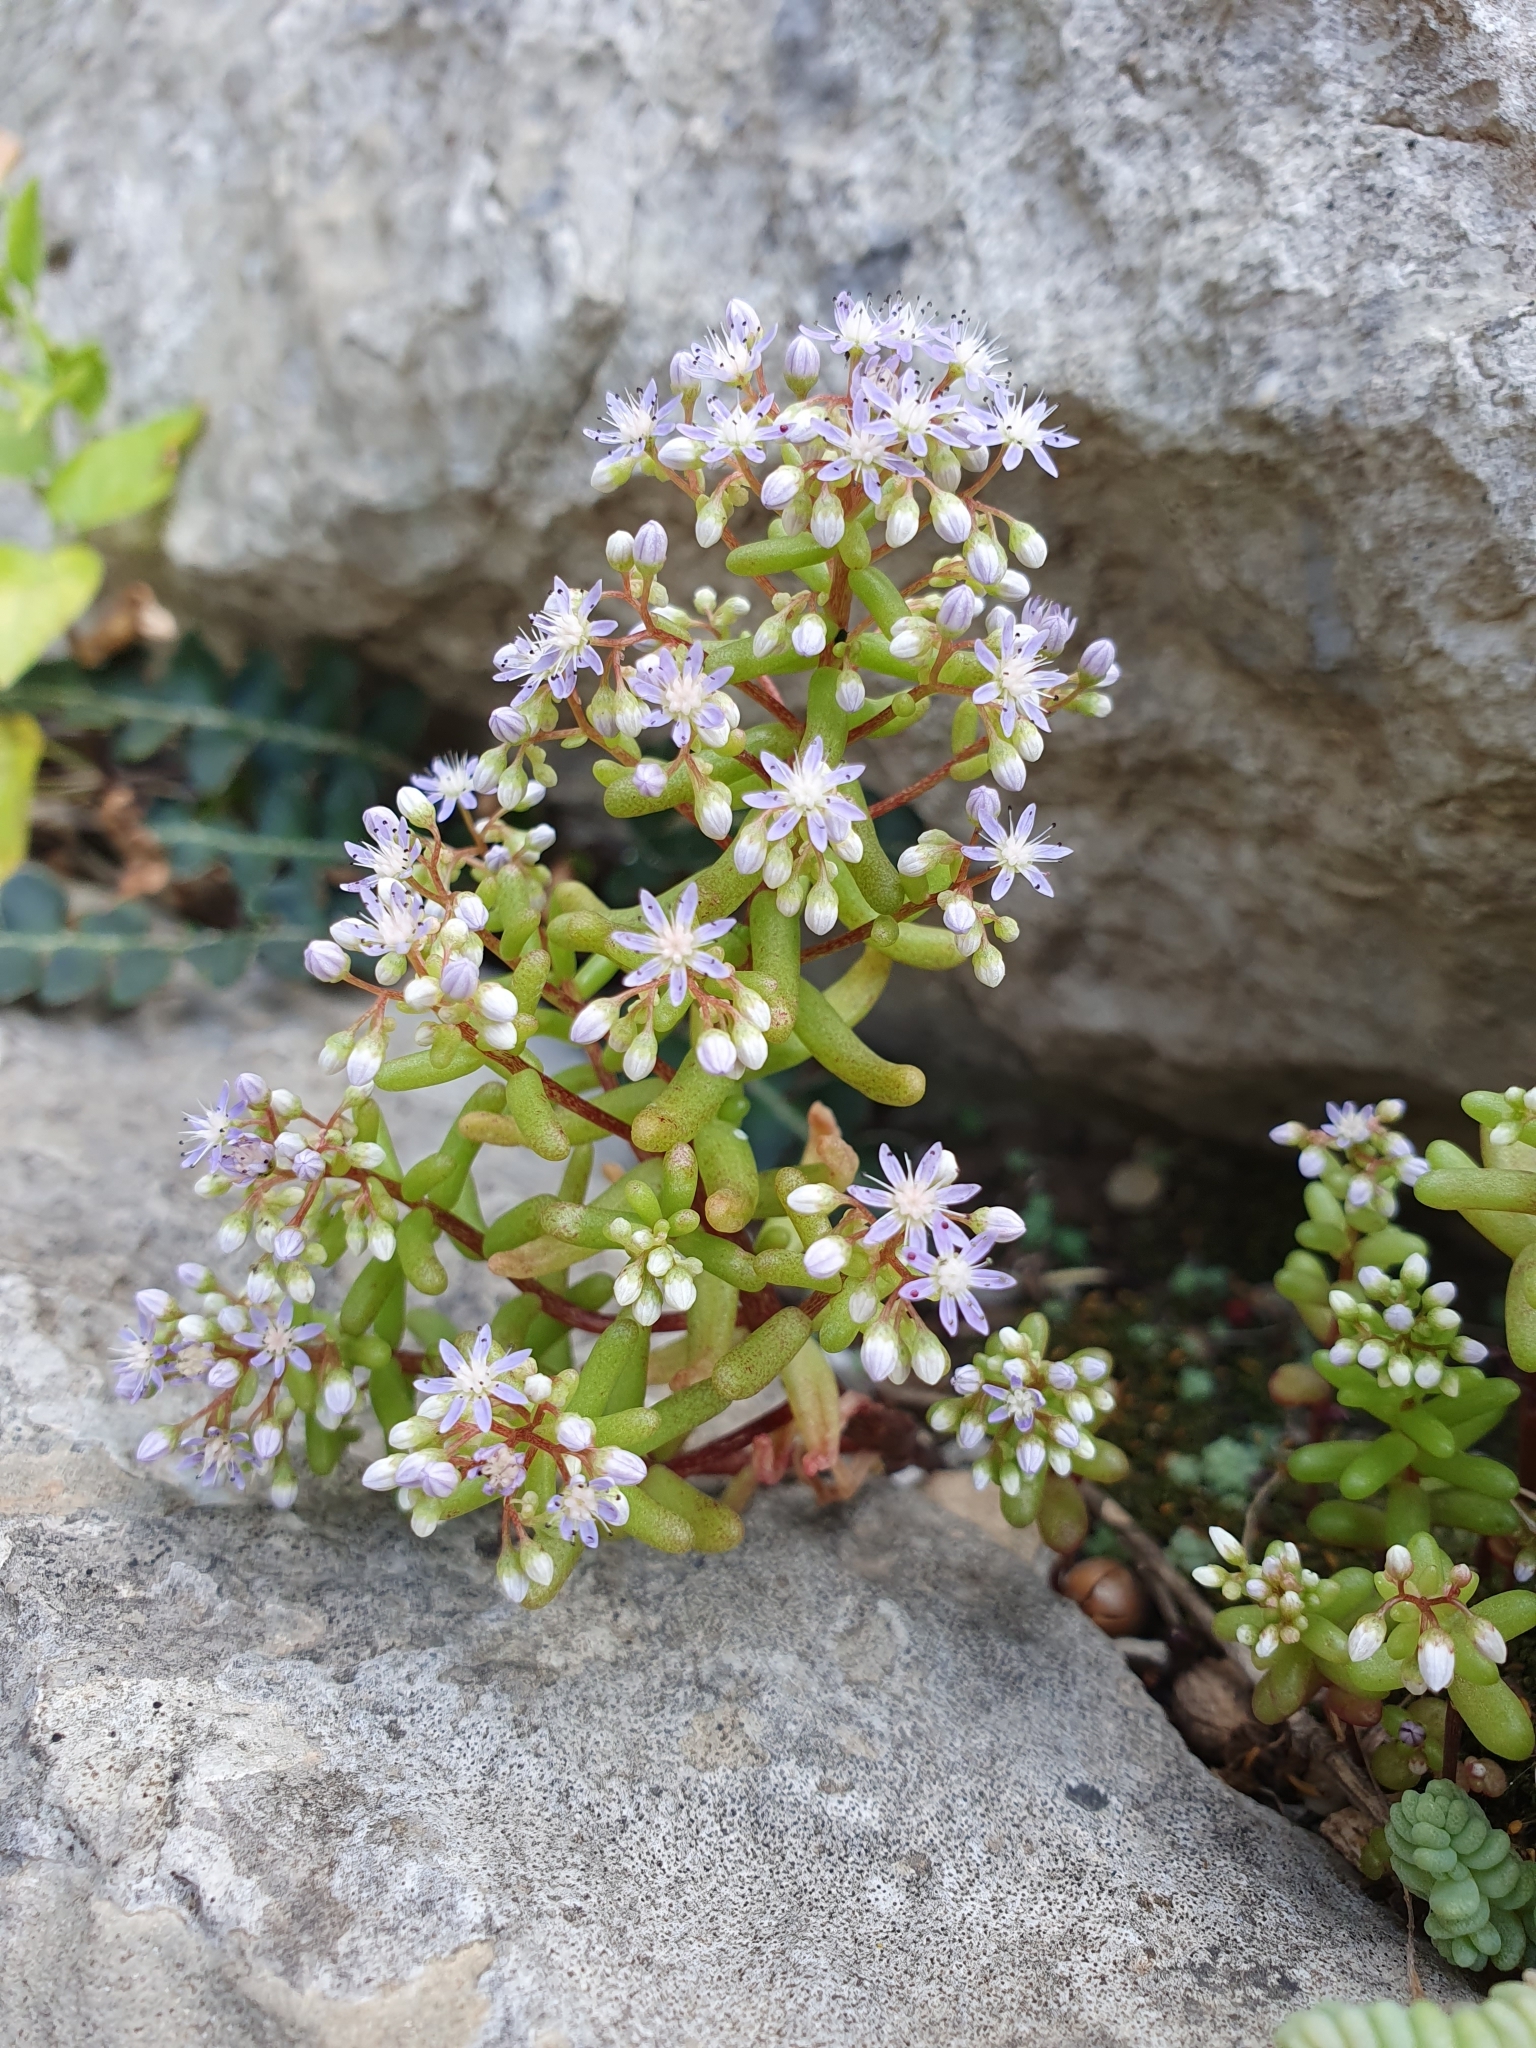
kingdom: Plantae
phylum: Tracheophyta
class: Magnoliopsida
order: Saxifragales
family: Crassulaceae
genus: Sedum
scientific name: Sedum caeruleum
